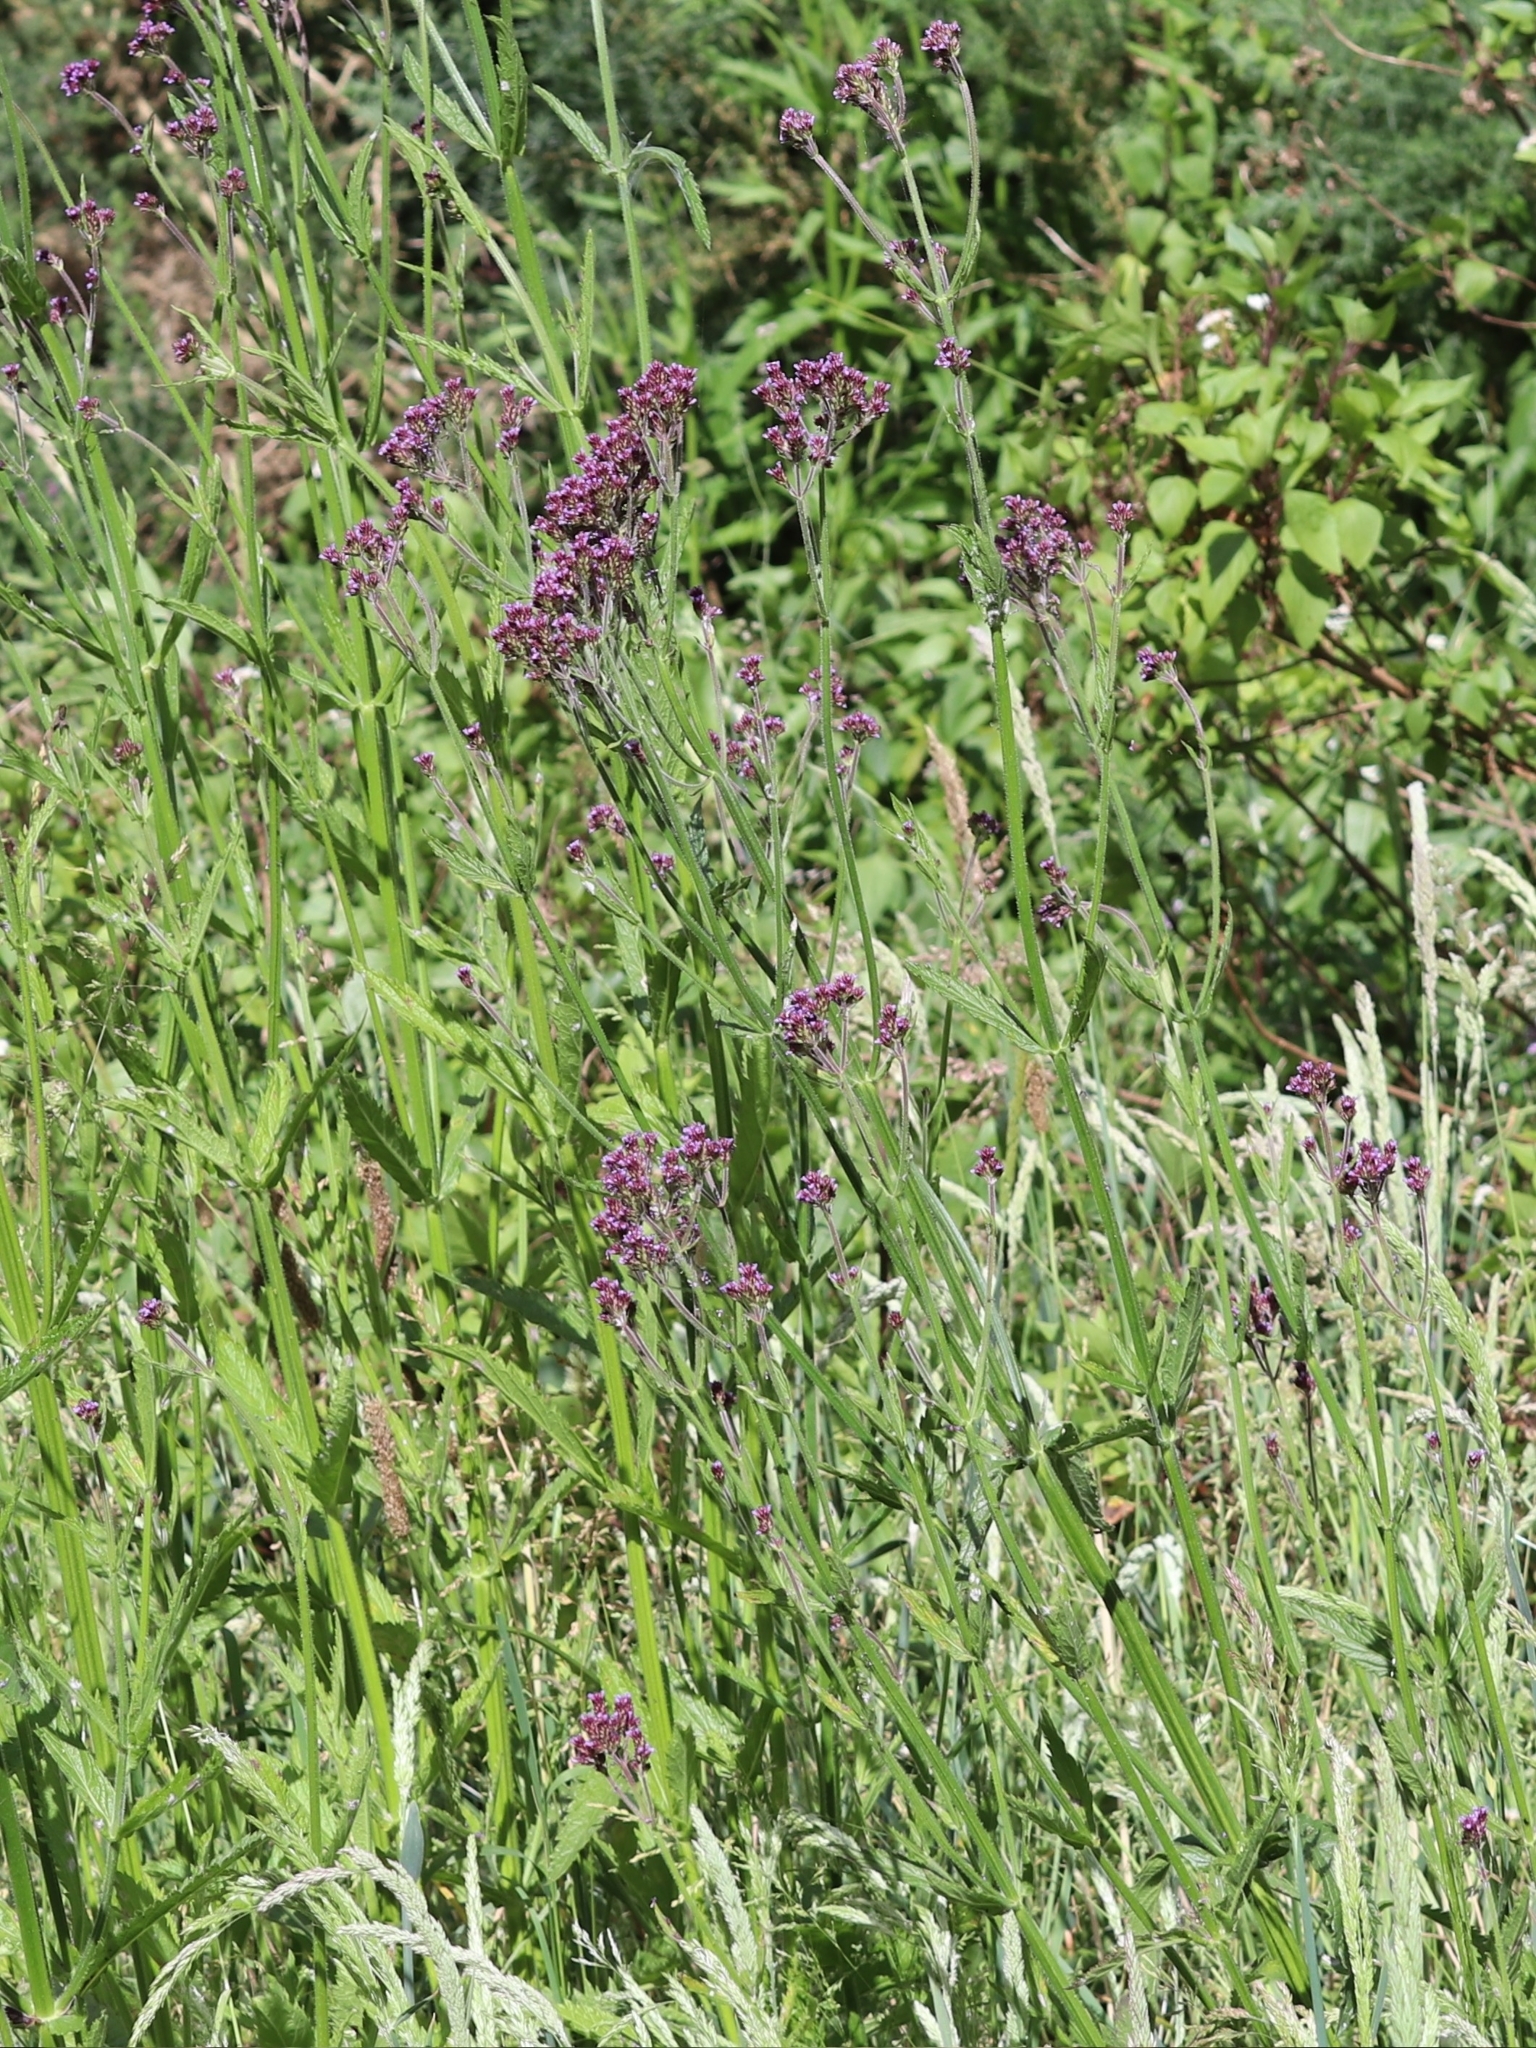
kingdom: Plantae
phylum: Tracheophyta
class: Magnoliopsida
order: Lamiales
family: Verbenaceae
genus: Verbena
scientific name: Verbena bonariensis
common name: Purpletop vervain
